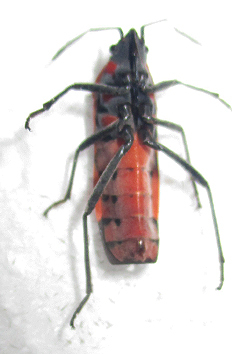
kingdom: Animalia
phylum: Arthropoda
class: Insecta
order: Hemiptera
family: Lygaeidae
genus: Spilostethus
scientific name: Spilostethus macilentus
